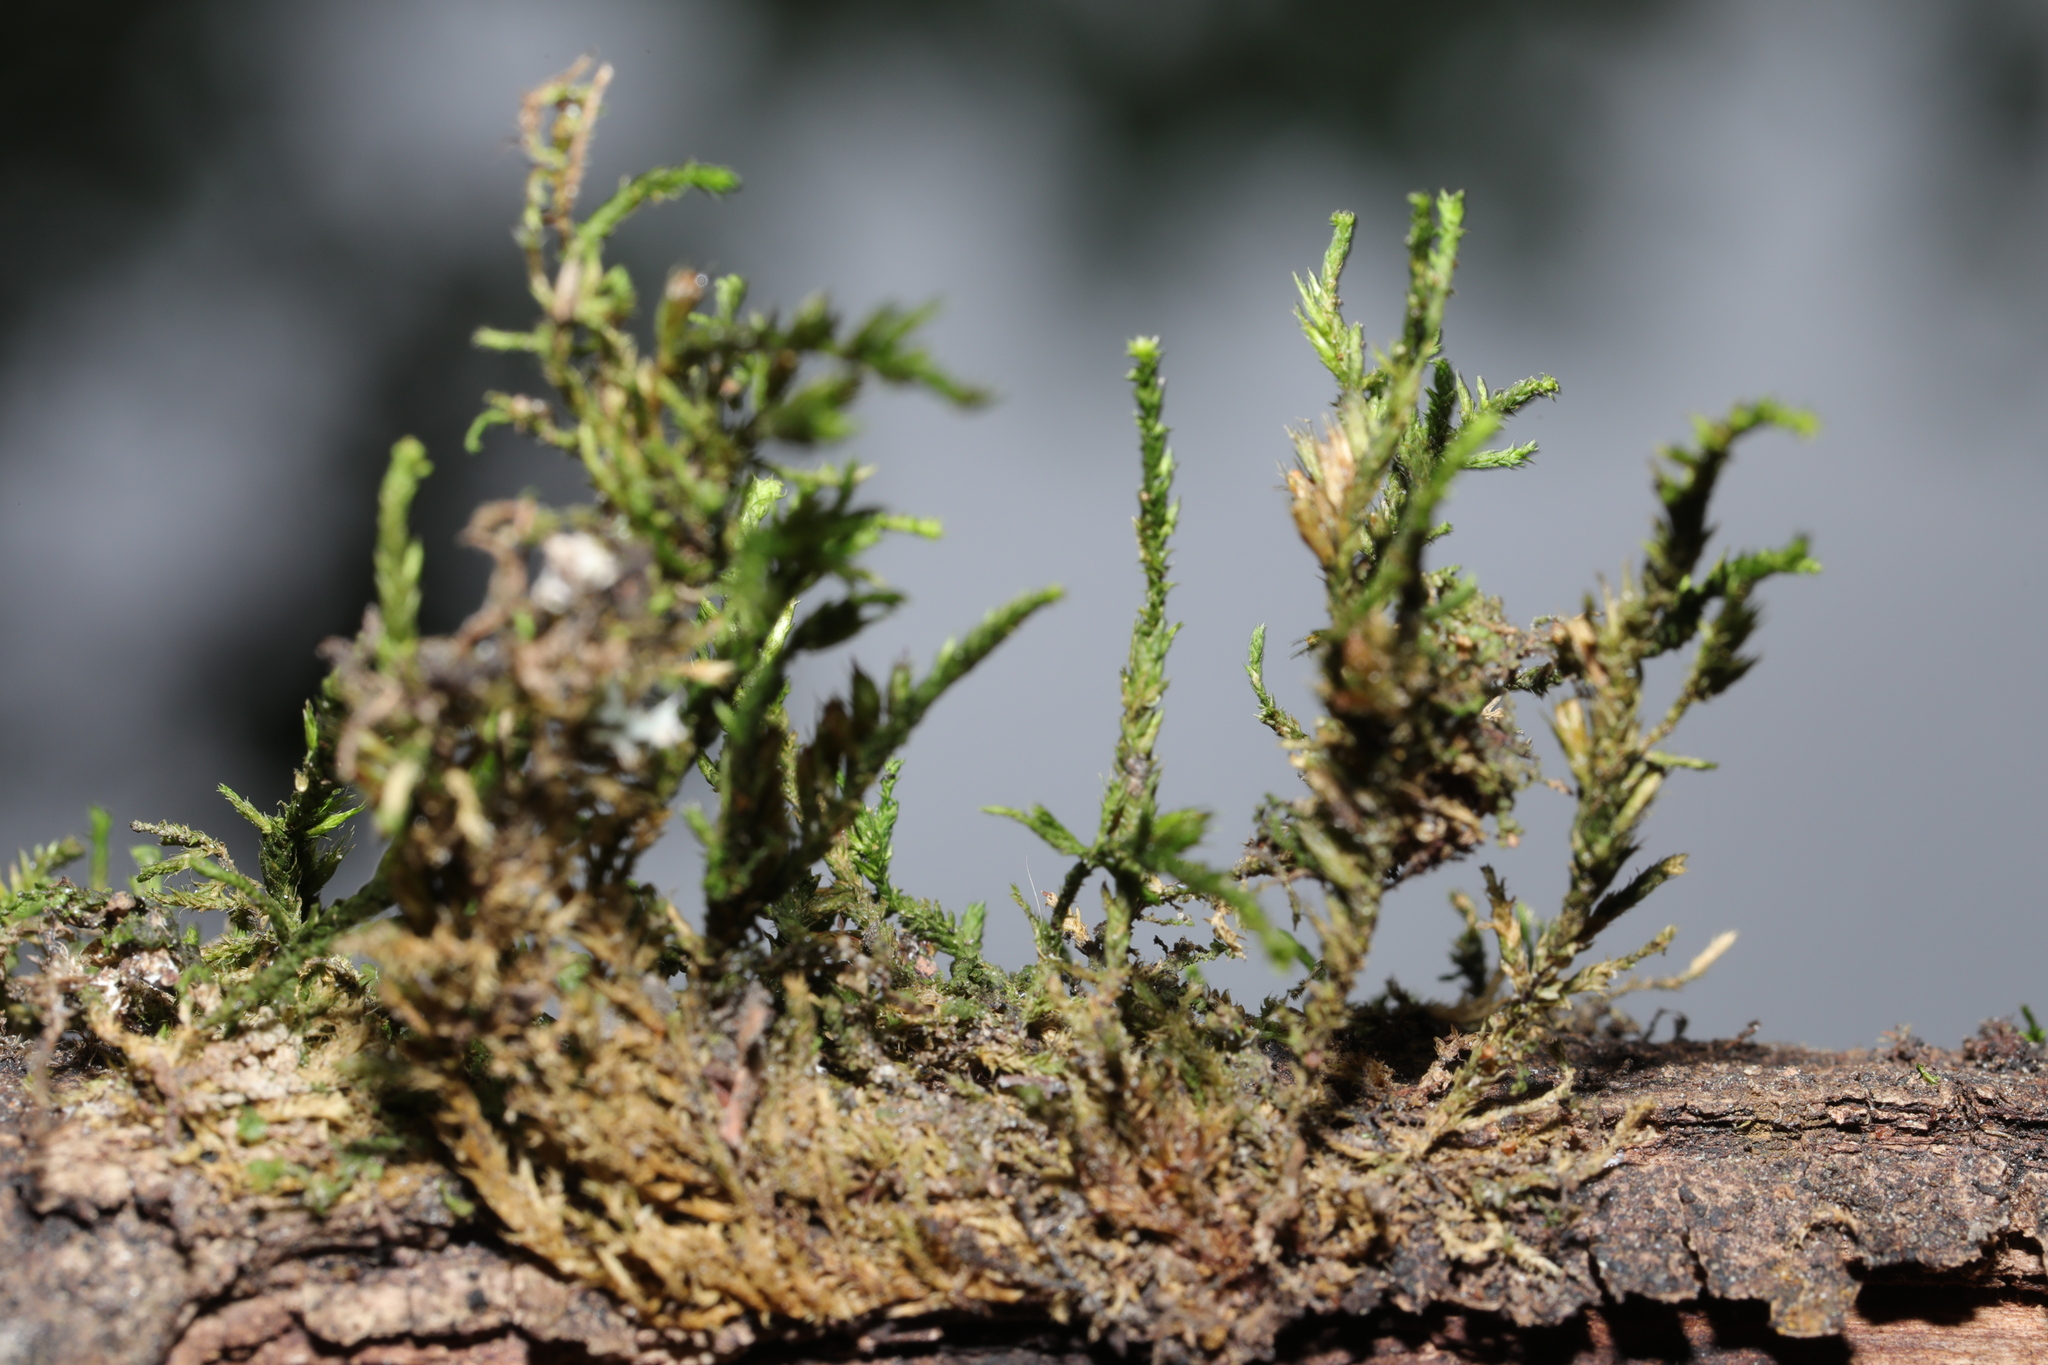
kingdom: Plantae
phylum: Bryophyta
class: Bryopsida
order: Hypnales
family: Cryphaeaceae
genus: Cryphaea
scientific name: Cryphaea heteromalla
